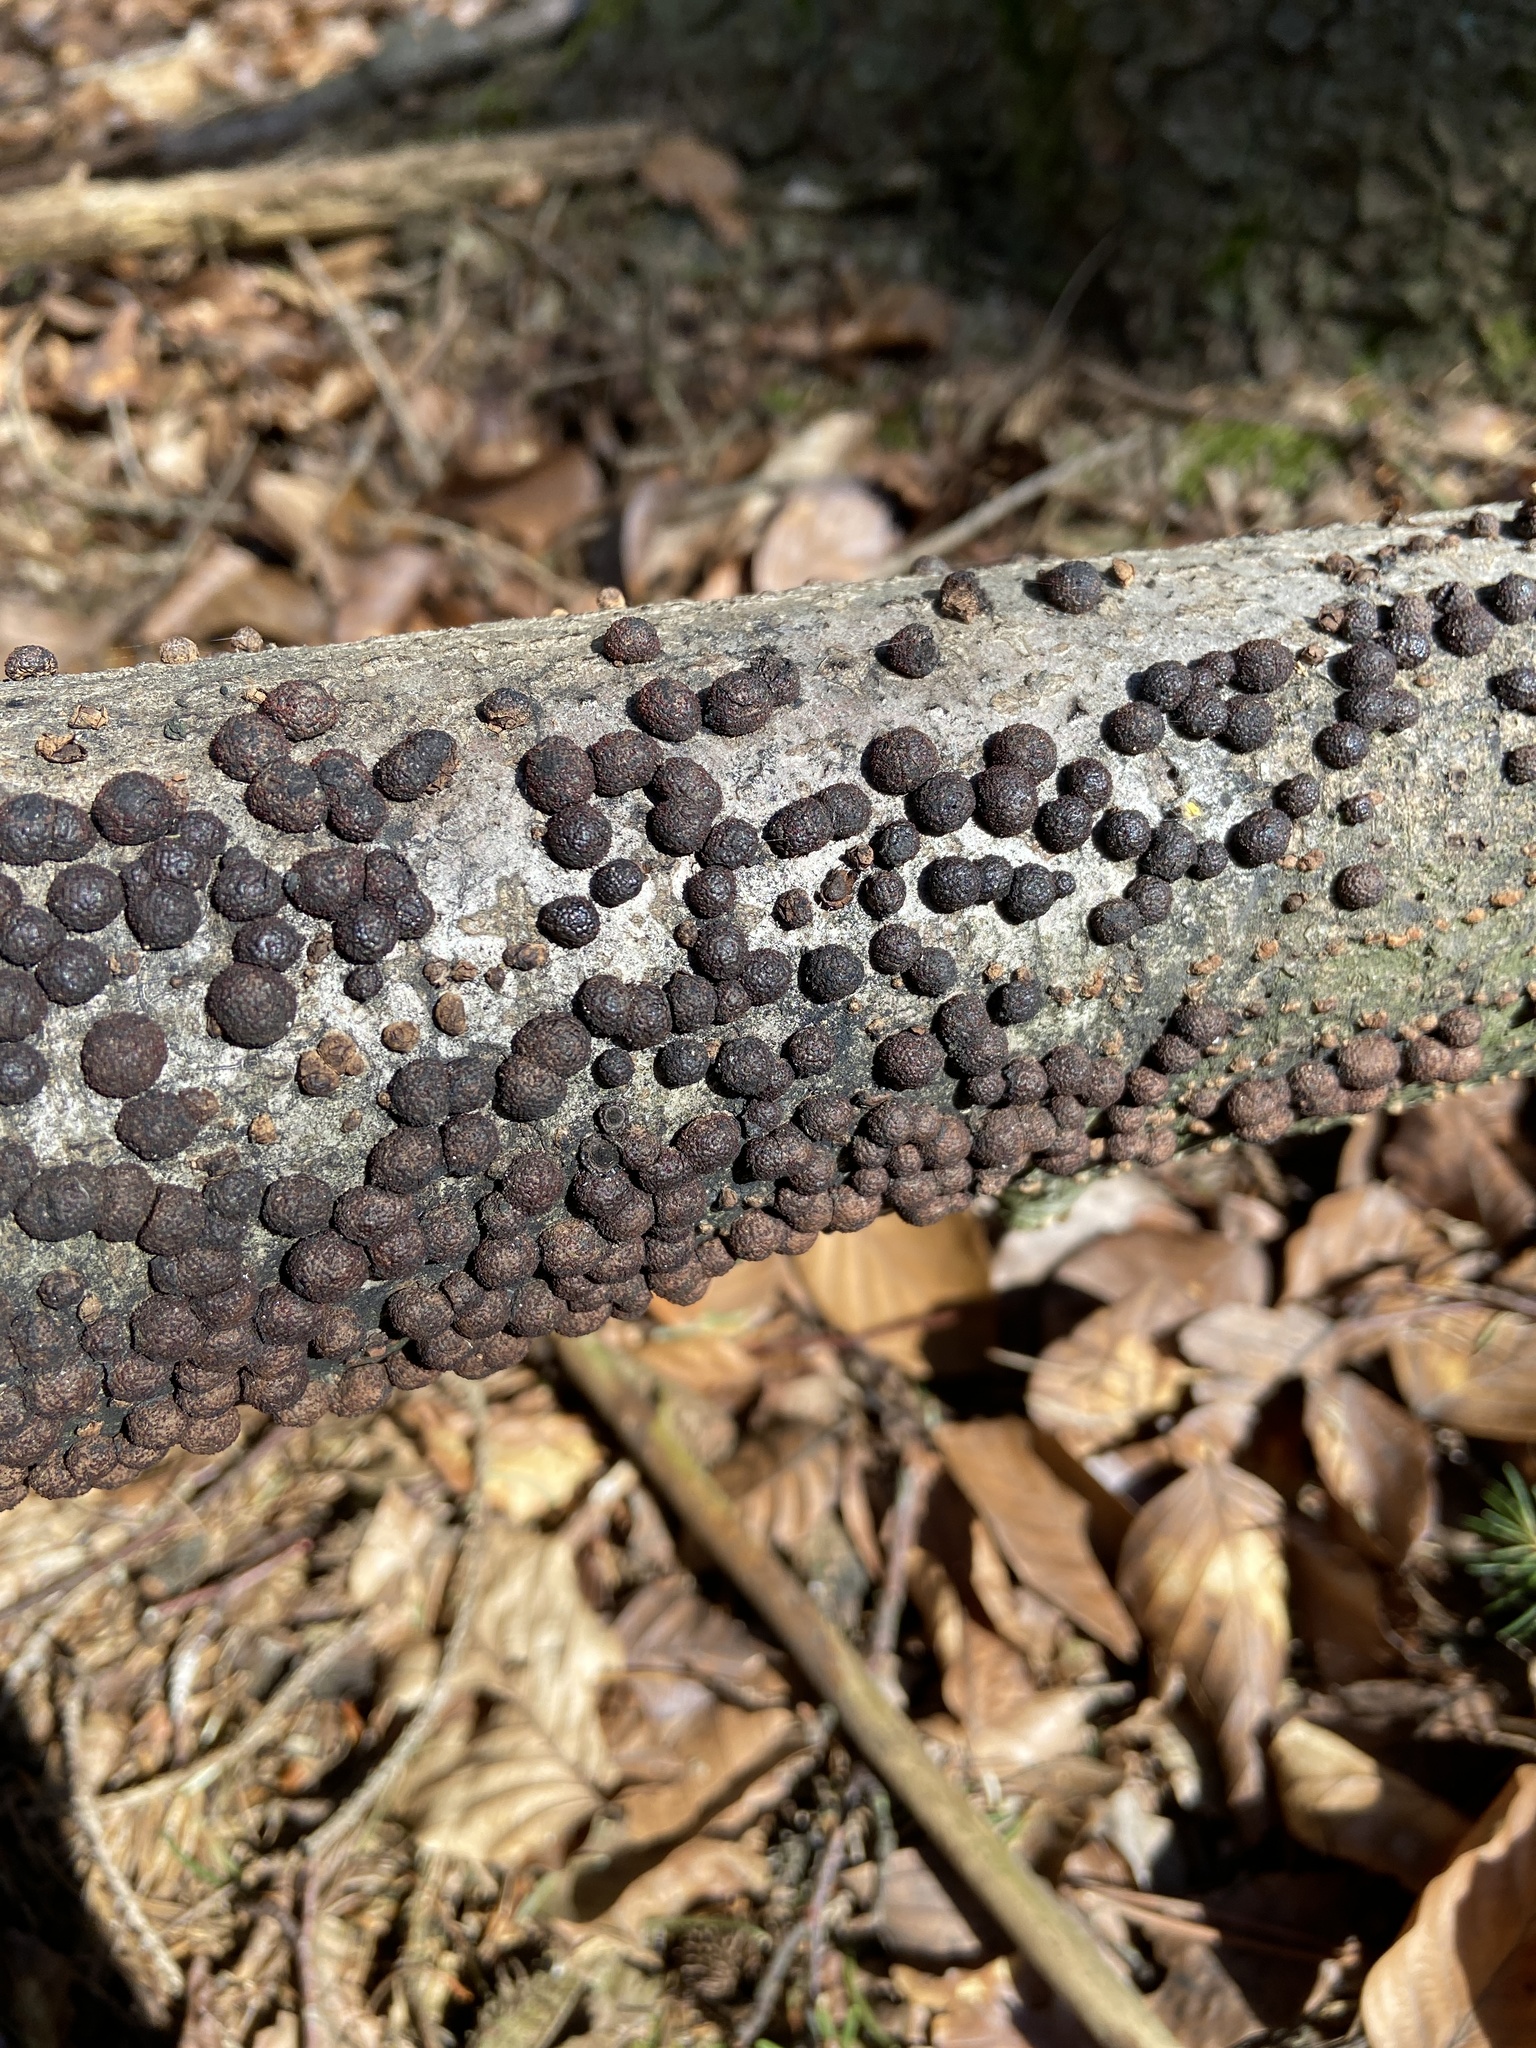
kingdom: Fungi
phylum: Ascomycota
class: Sordariomycetes
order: Xylariales
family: Hypoxylaceae
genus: Hypoxylon
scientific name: Hypoxylon fragiforme
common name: Beech woodwart
